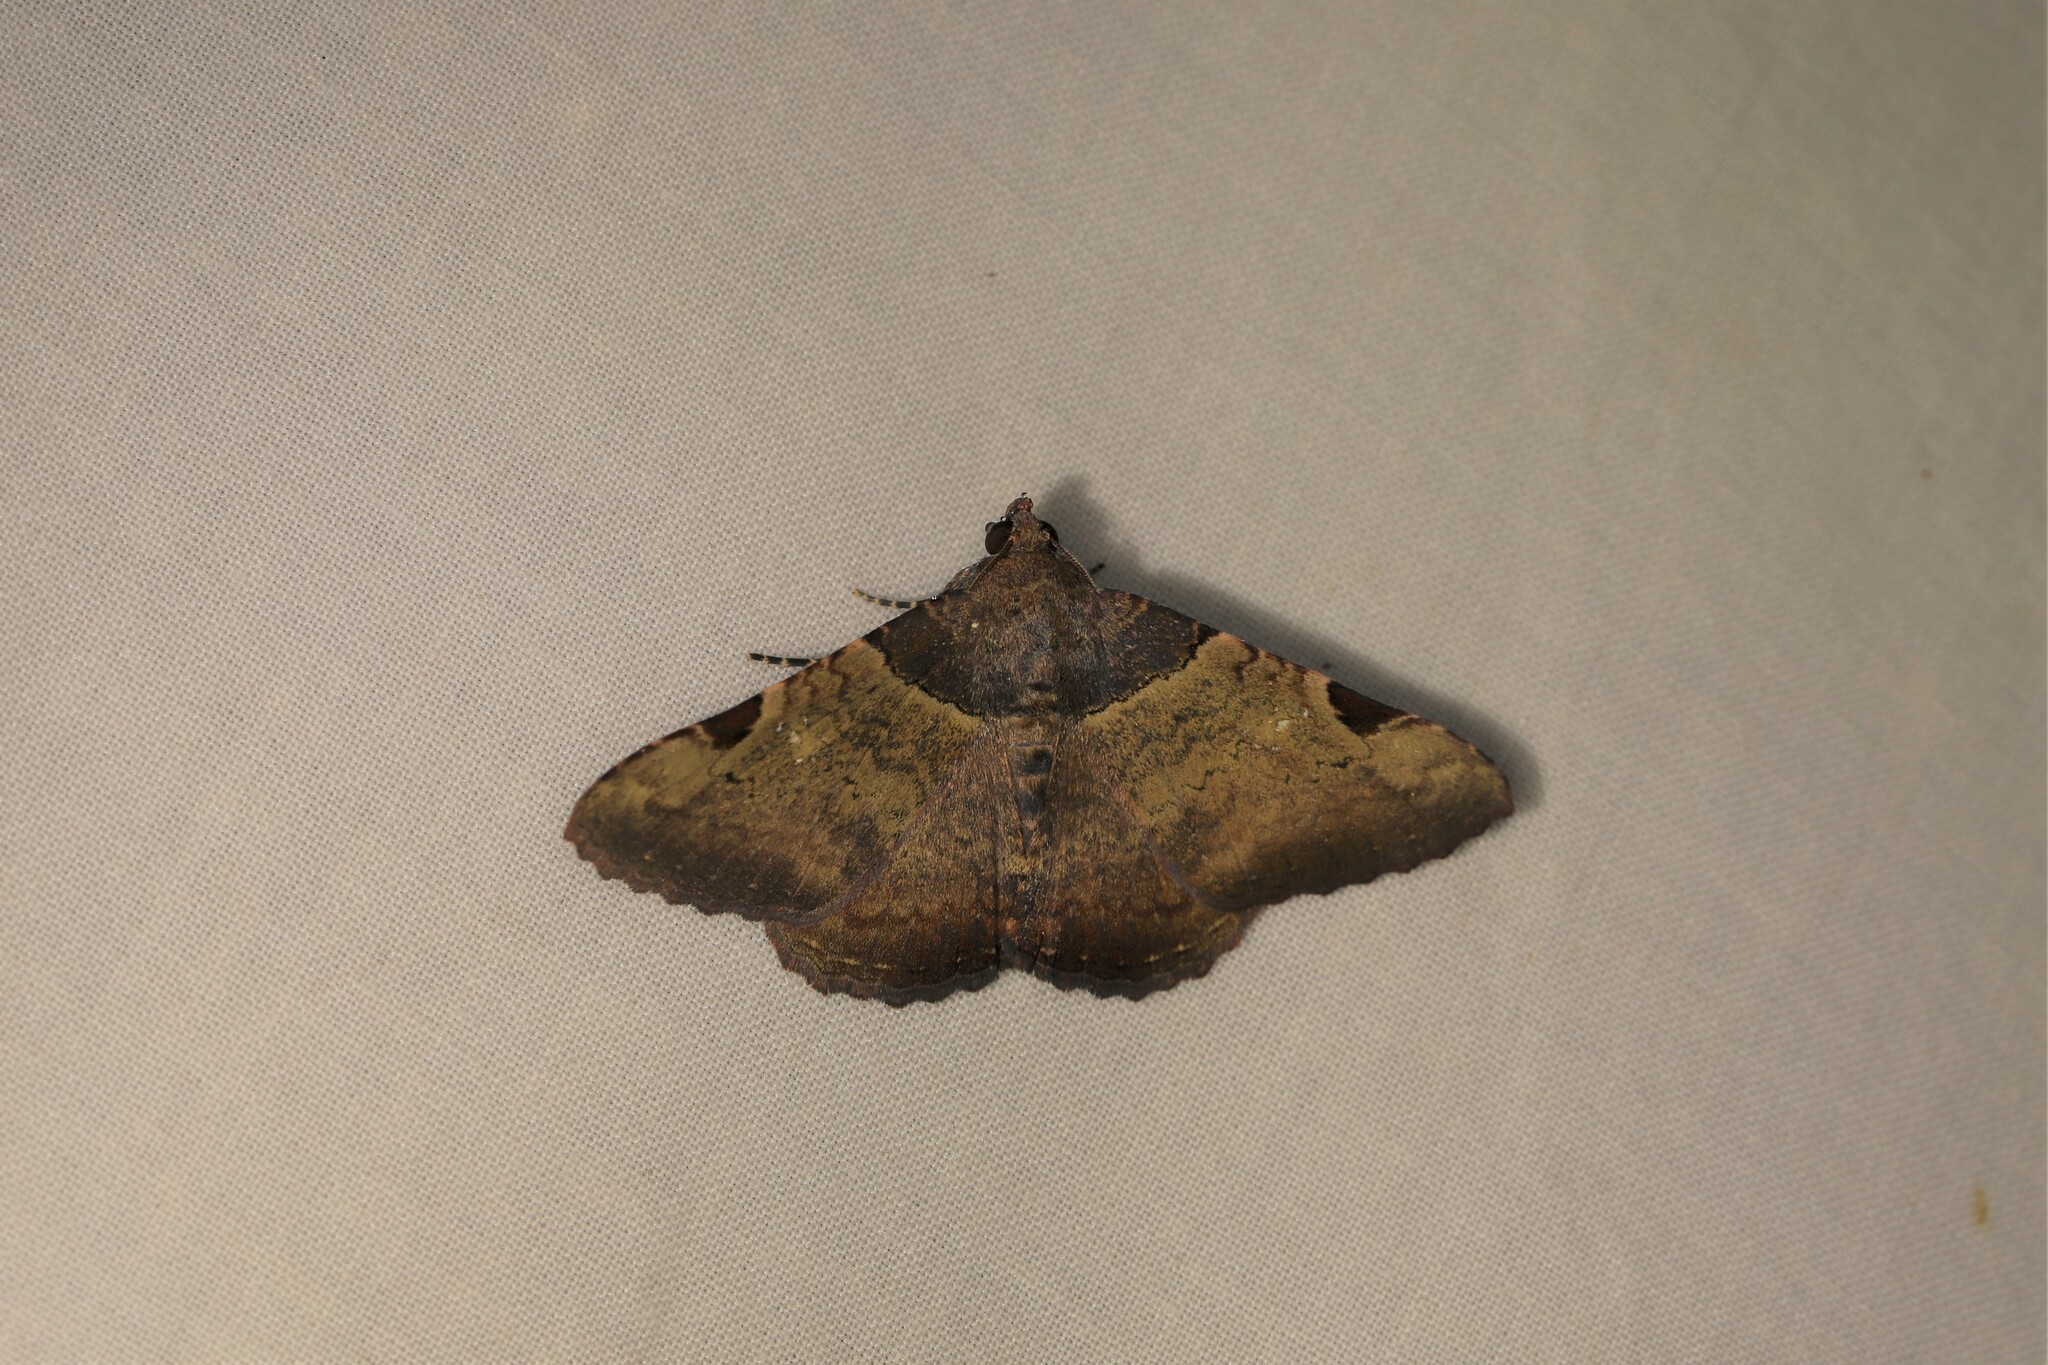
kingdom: Animalia
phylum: Arthropoda
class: Insecta
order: Lepidoptera
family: Erebidae
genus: Metria
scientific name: Metria
